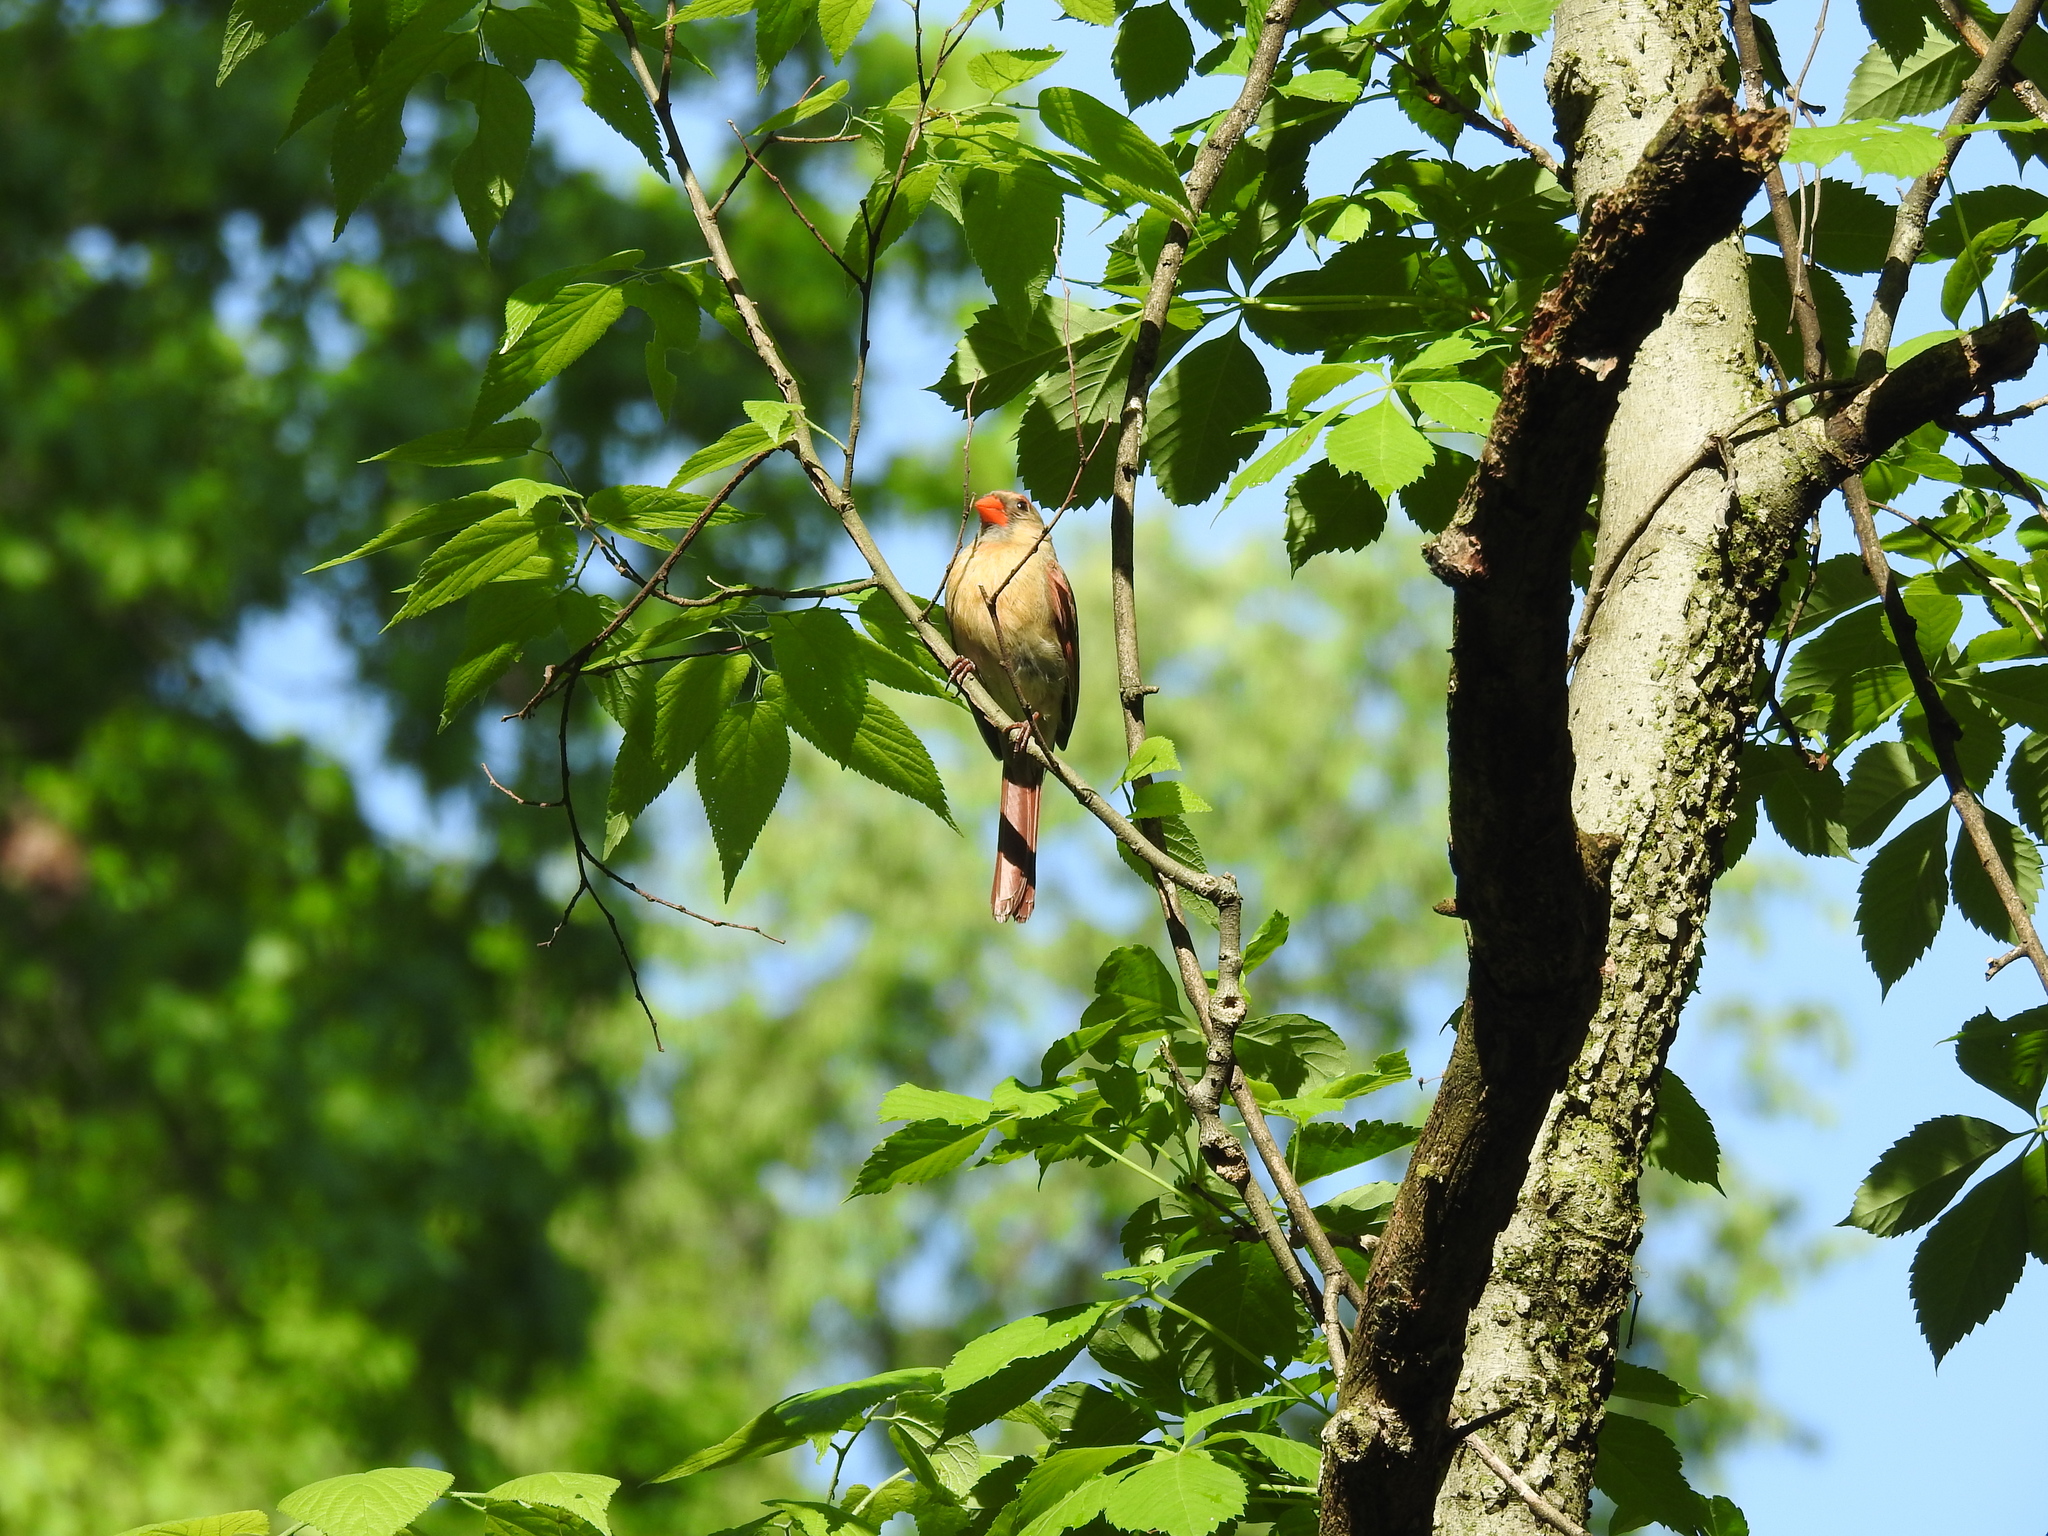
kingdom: Animalia
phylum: Chordata
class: Aves
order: Passeriformes
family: Cardinalidae
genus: Cardinalis
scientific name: Cardinalis cardinalis
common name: Northern cardinal
